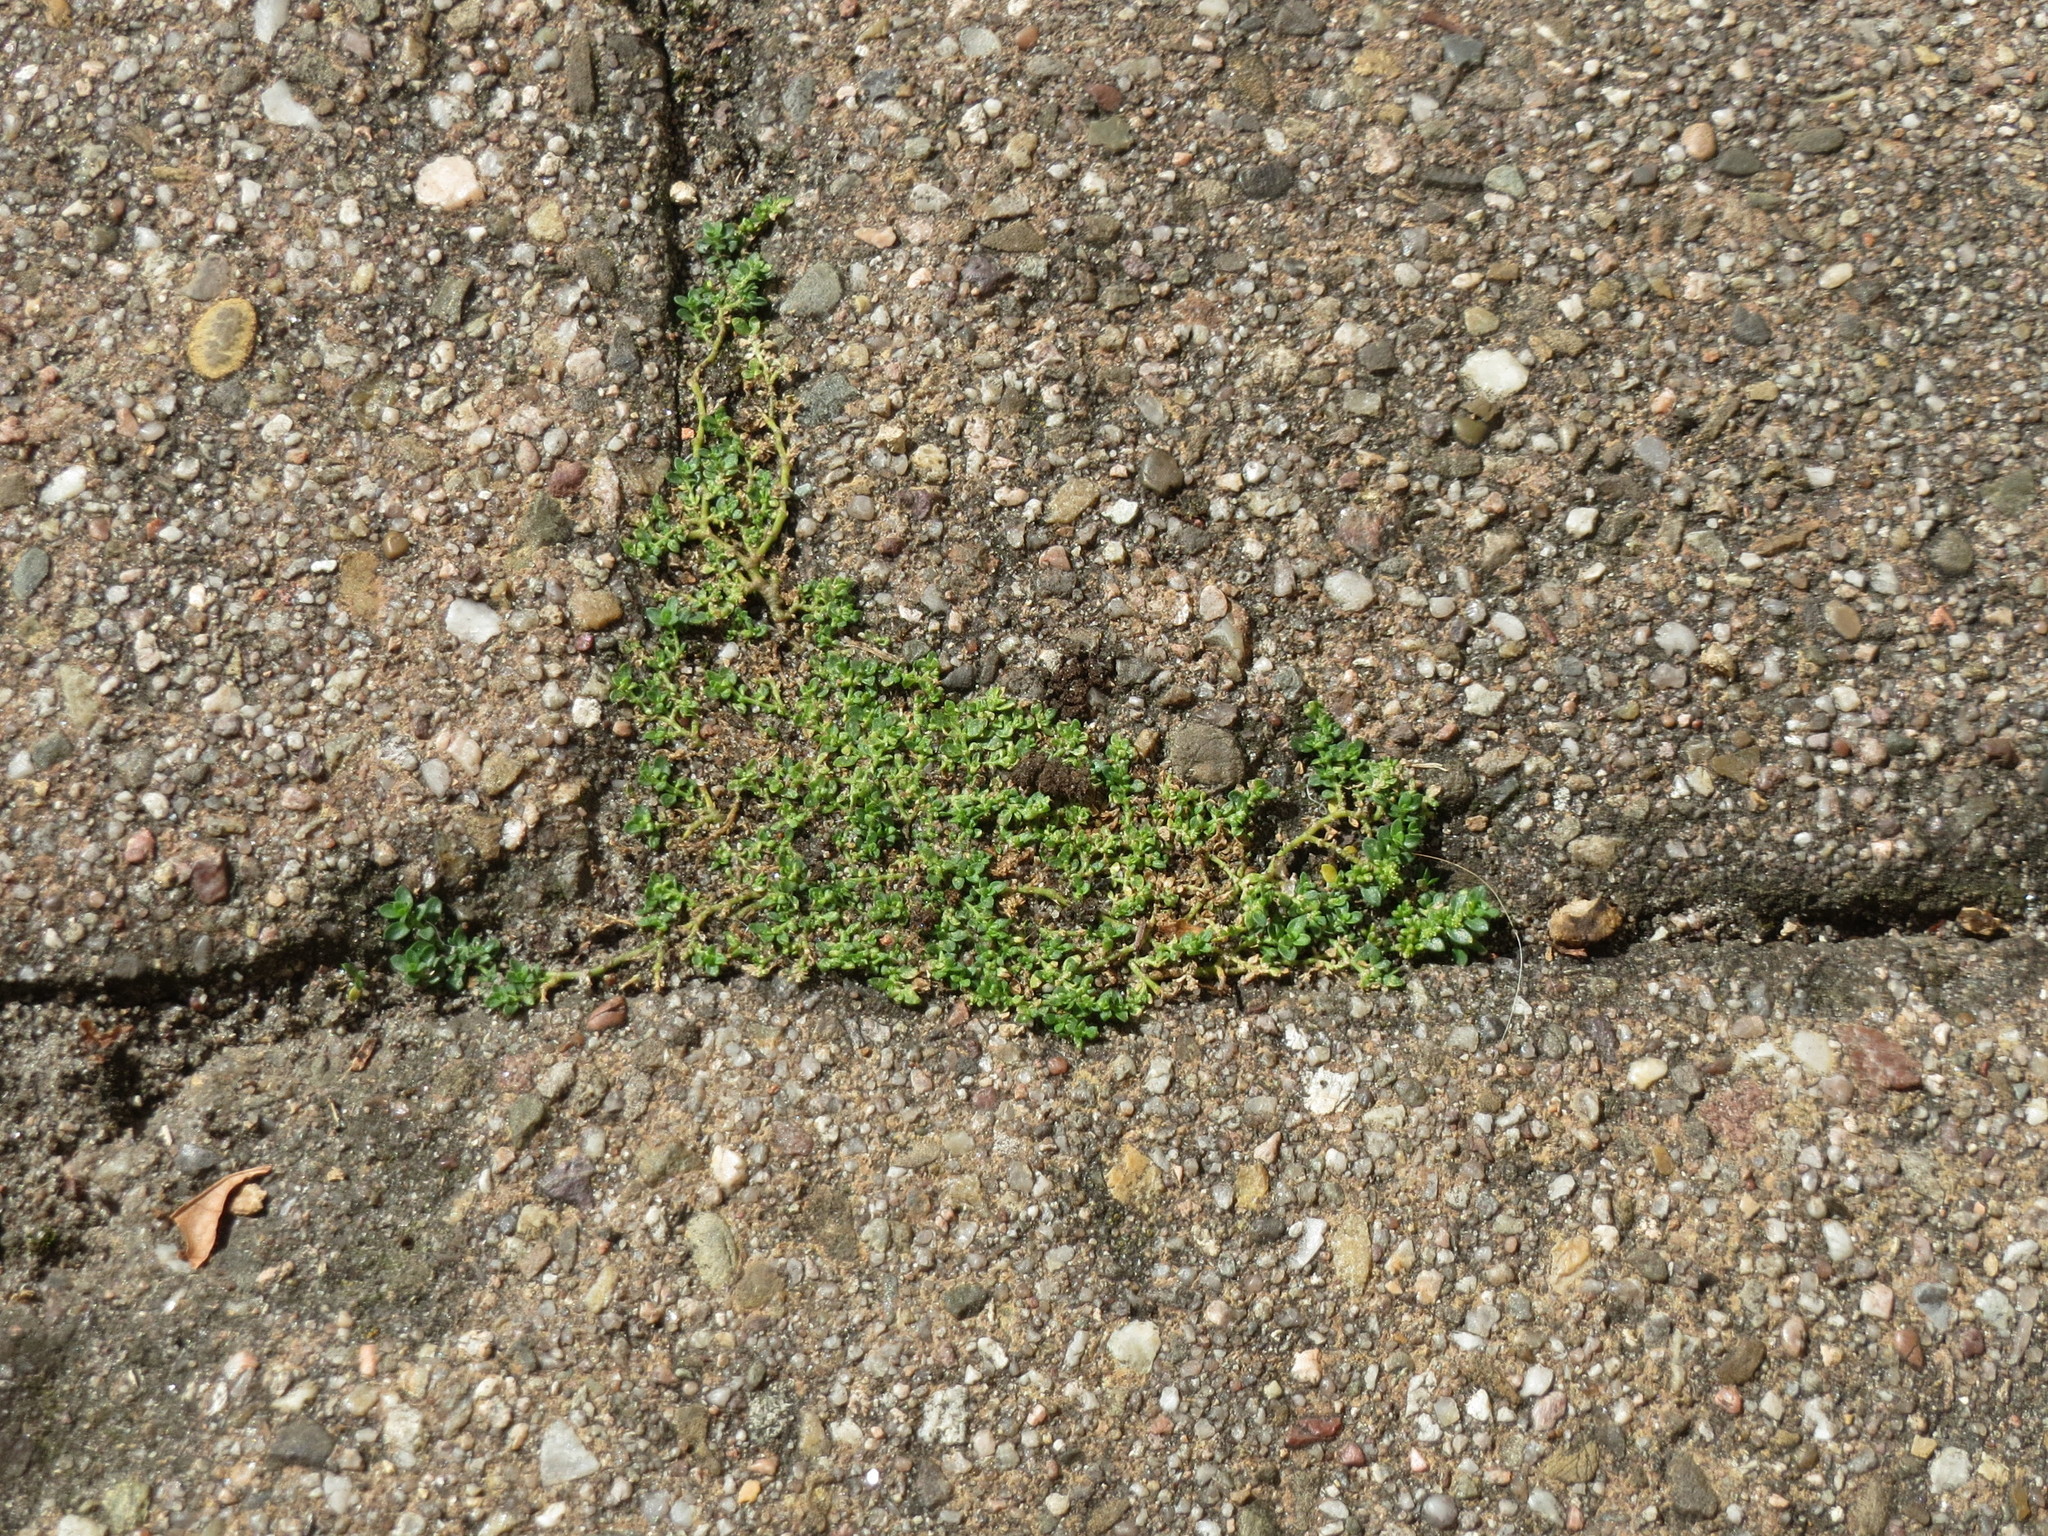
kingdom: Plantae
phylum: Tracheophyta
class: Magnoliopsida
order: Caryophyllales
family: Caryophyllaceae
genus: Herniaria
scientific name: Herniaria glabra
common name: Smooth rupturewort
